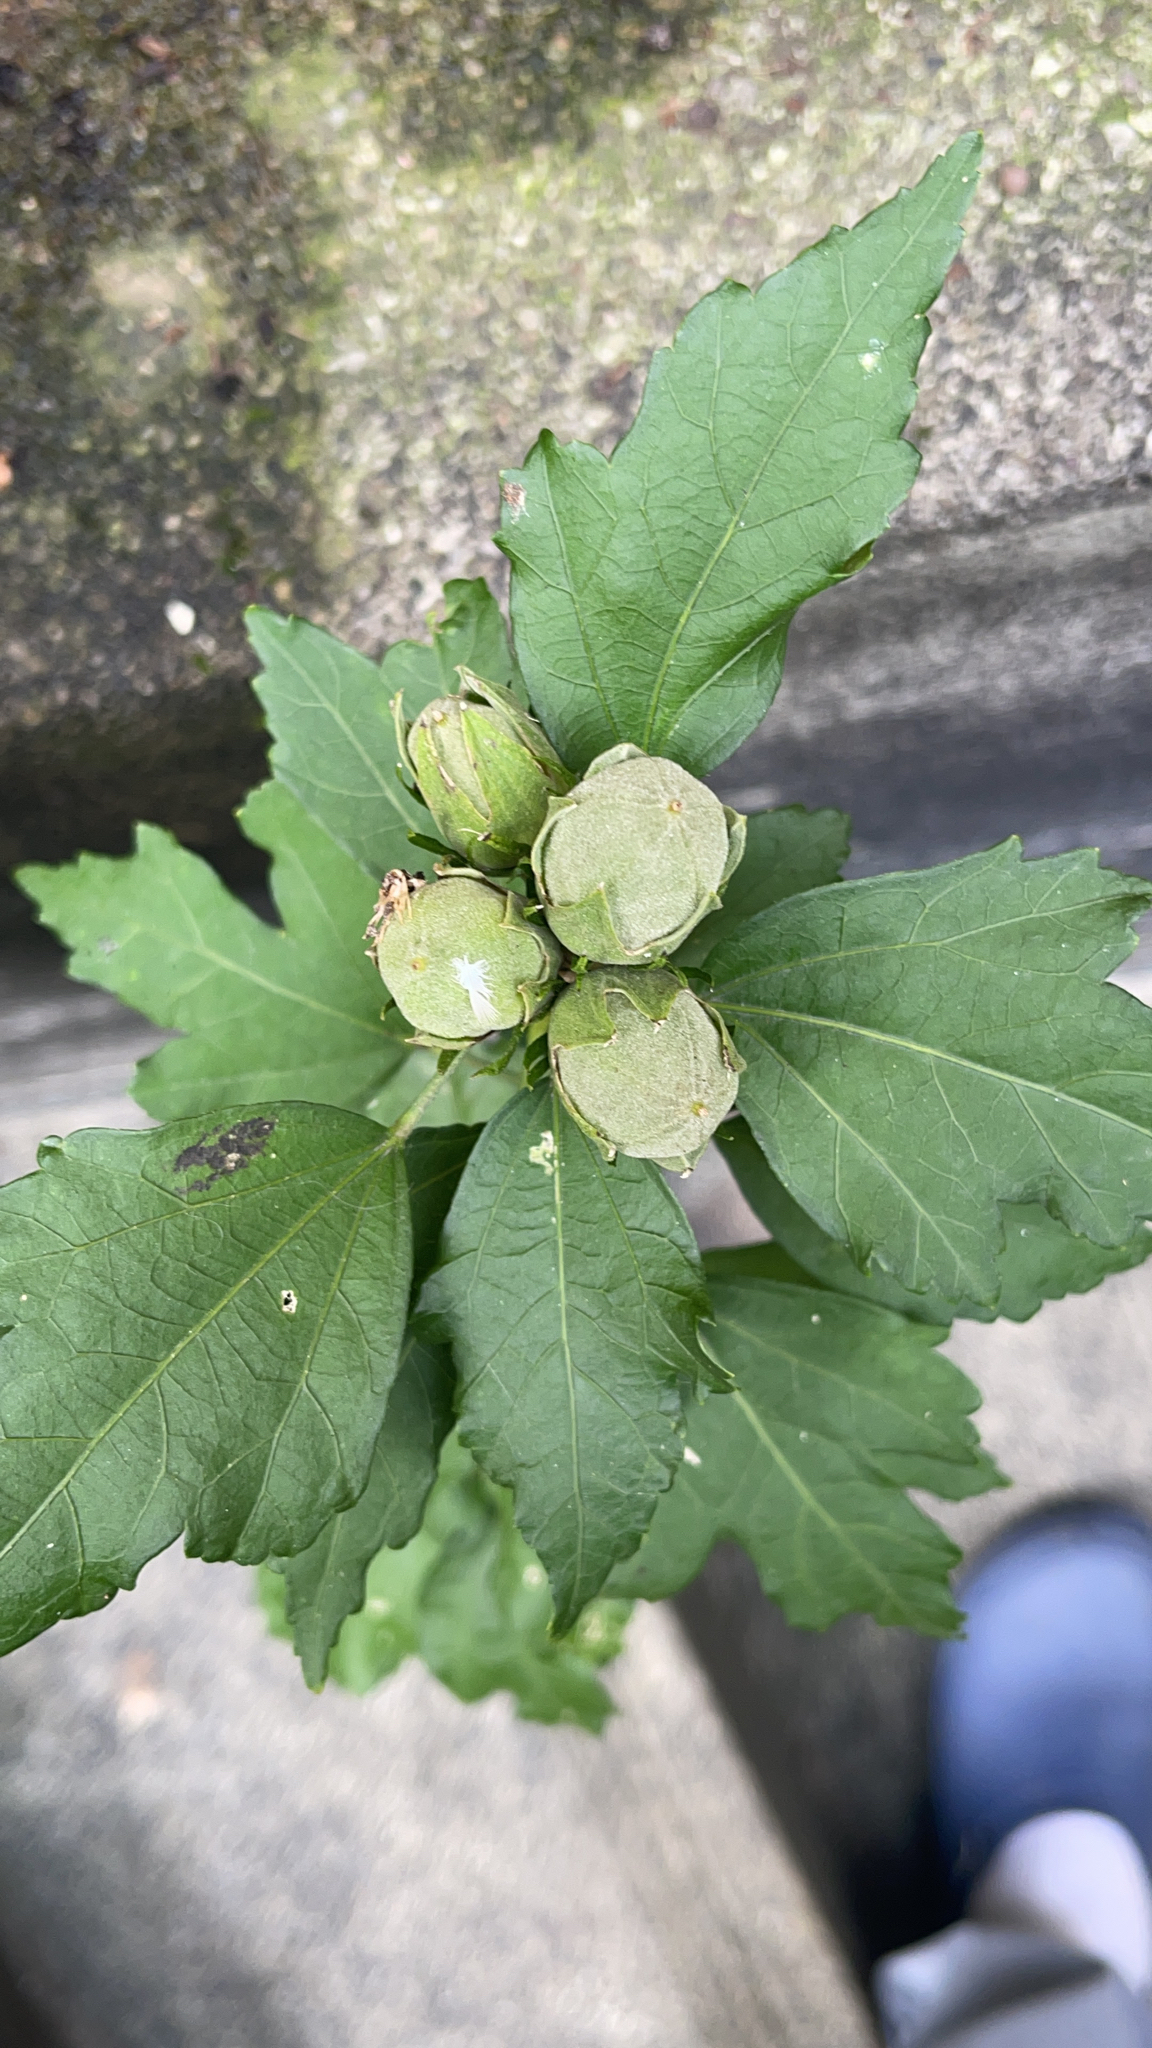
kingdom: Plantae
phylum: Tracheophyta
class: Magnoliopsida
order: Malvales
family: Malvaceae
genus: Hibiscus
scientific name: Hibiscus syriacus
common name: Syrian ketmia
